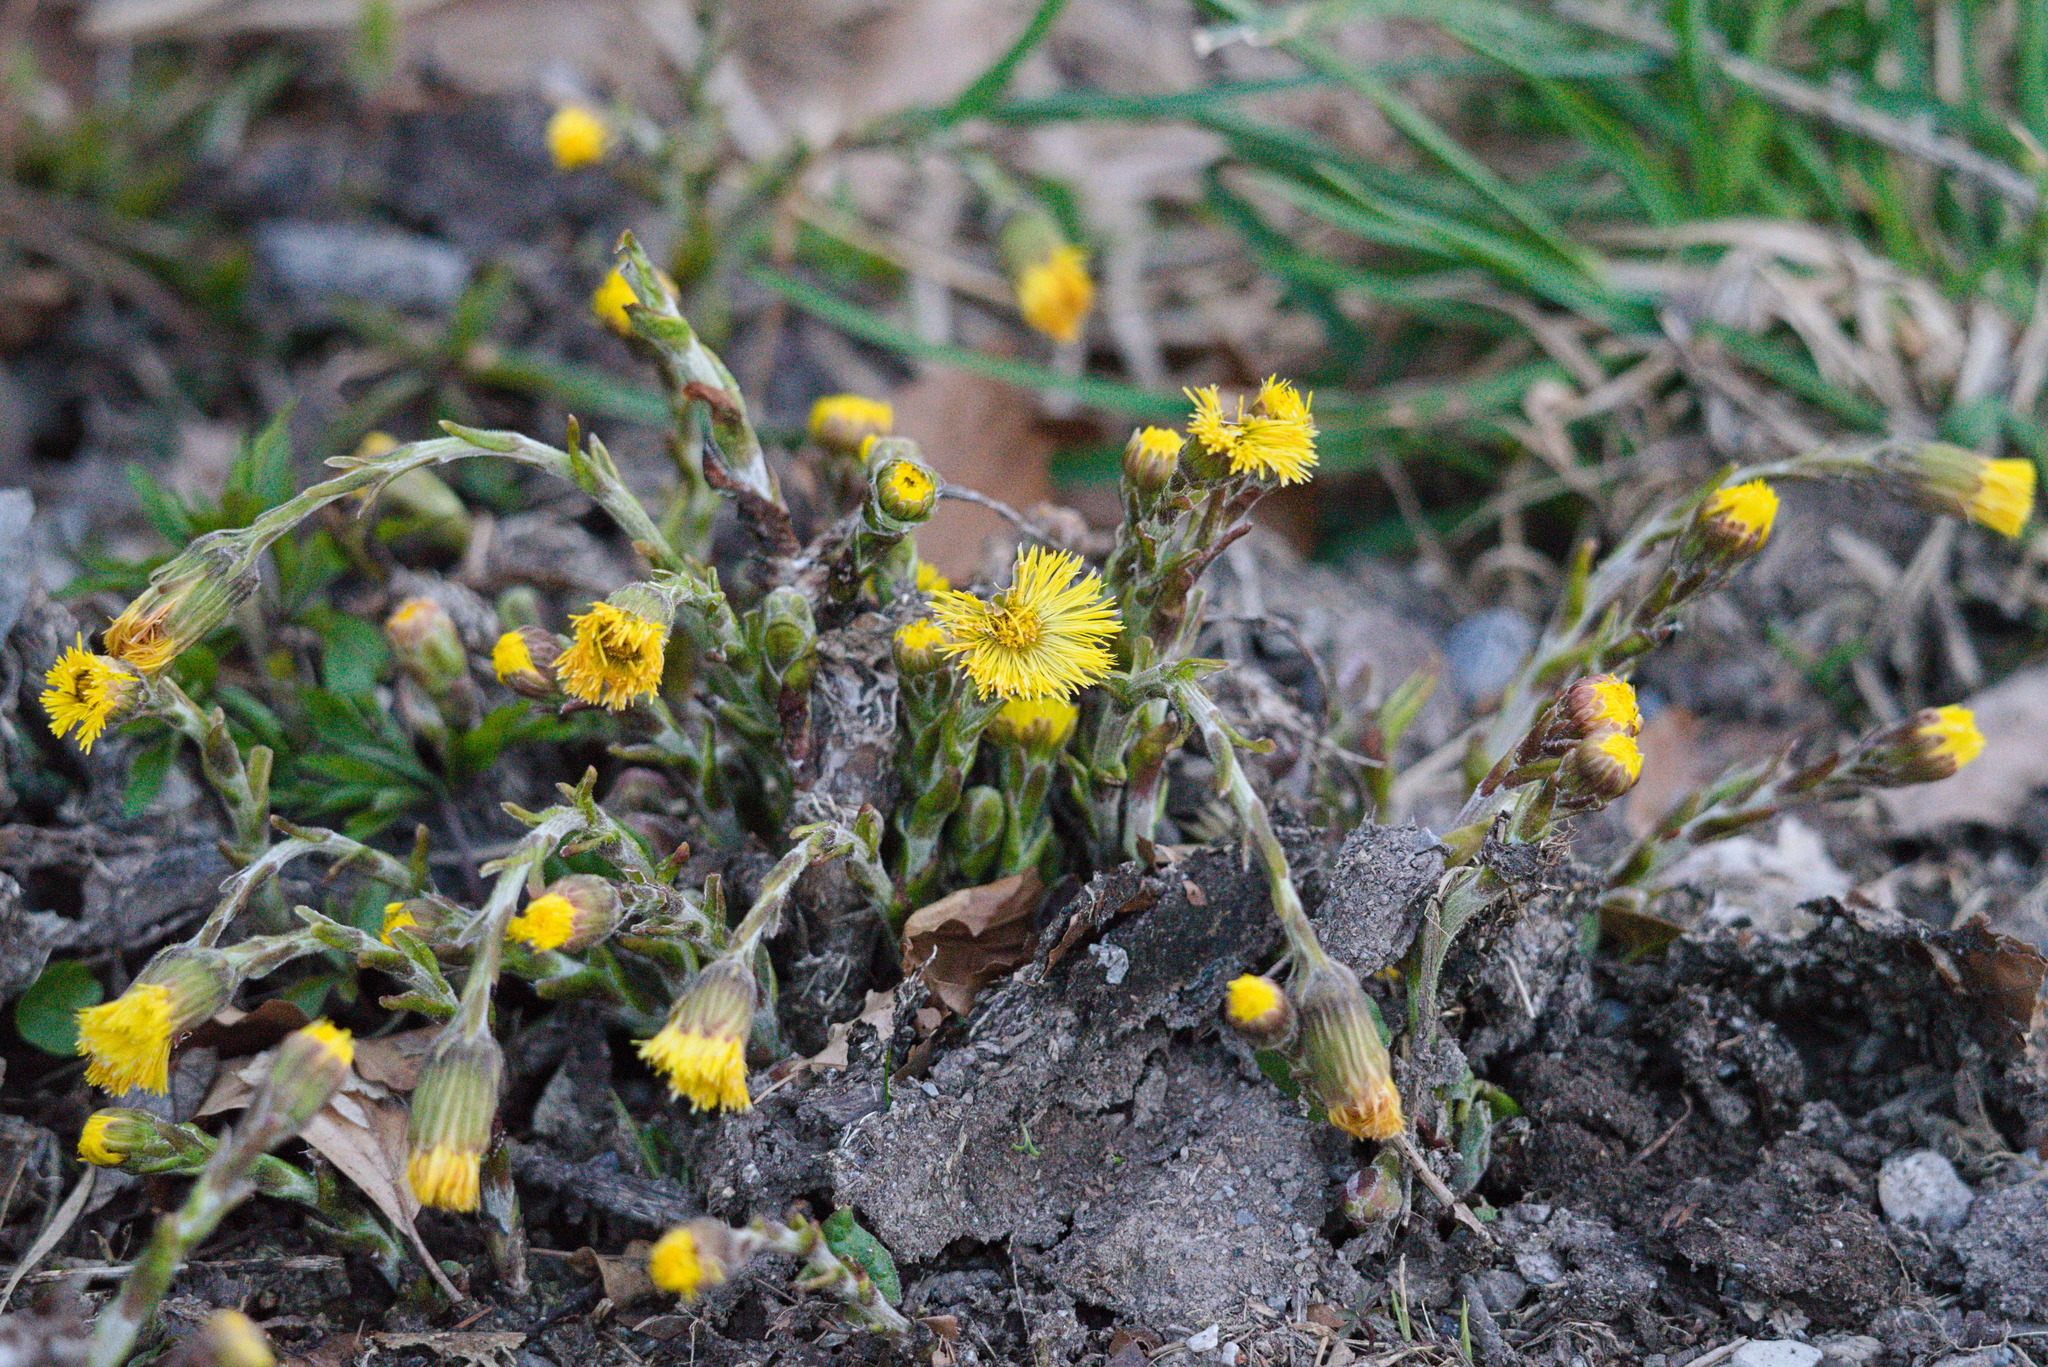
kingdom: Plantae
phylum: Tracheophyta
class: Magnoliopsida
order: Asterales
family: Asteraceae
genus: Tussilago
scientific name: Tussilago farfara
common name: Coltsfoot
